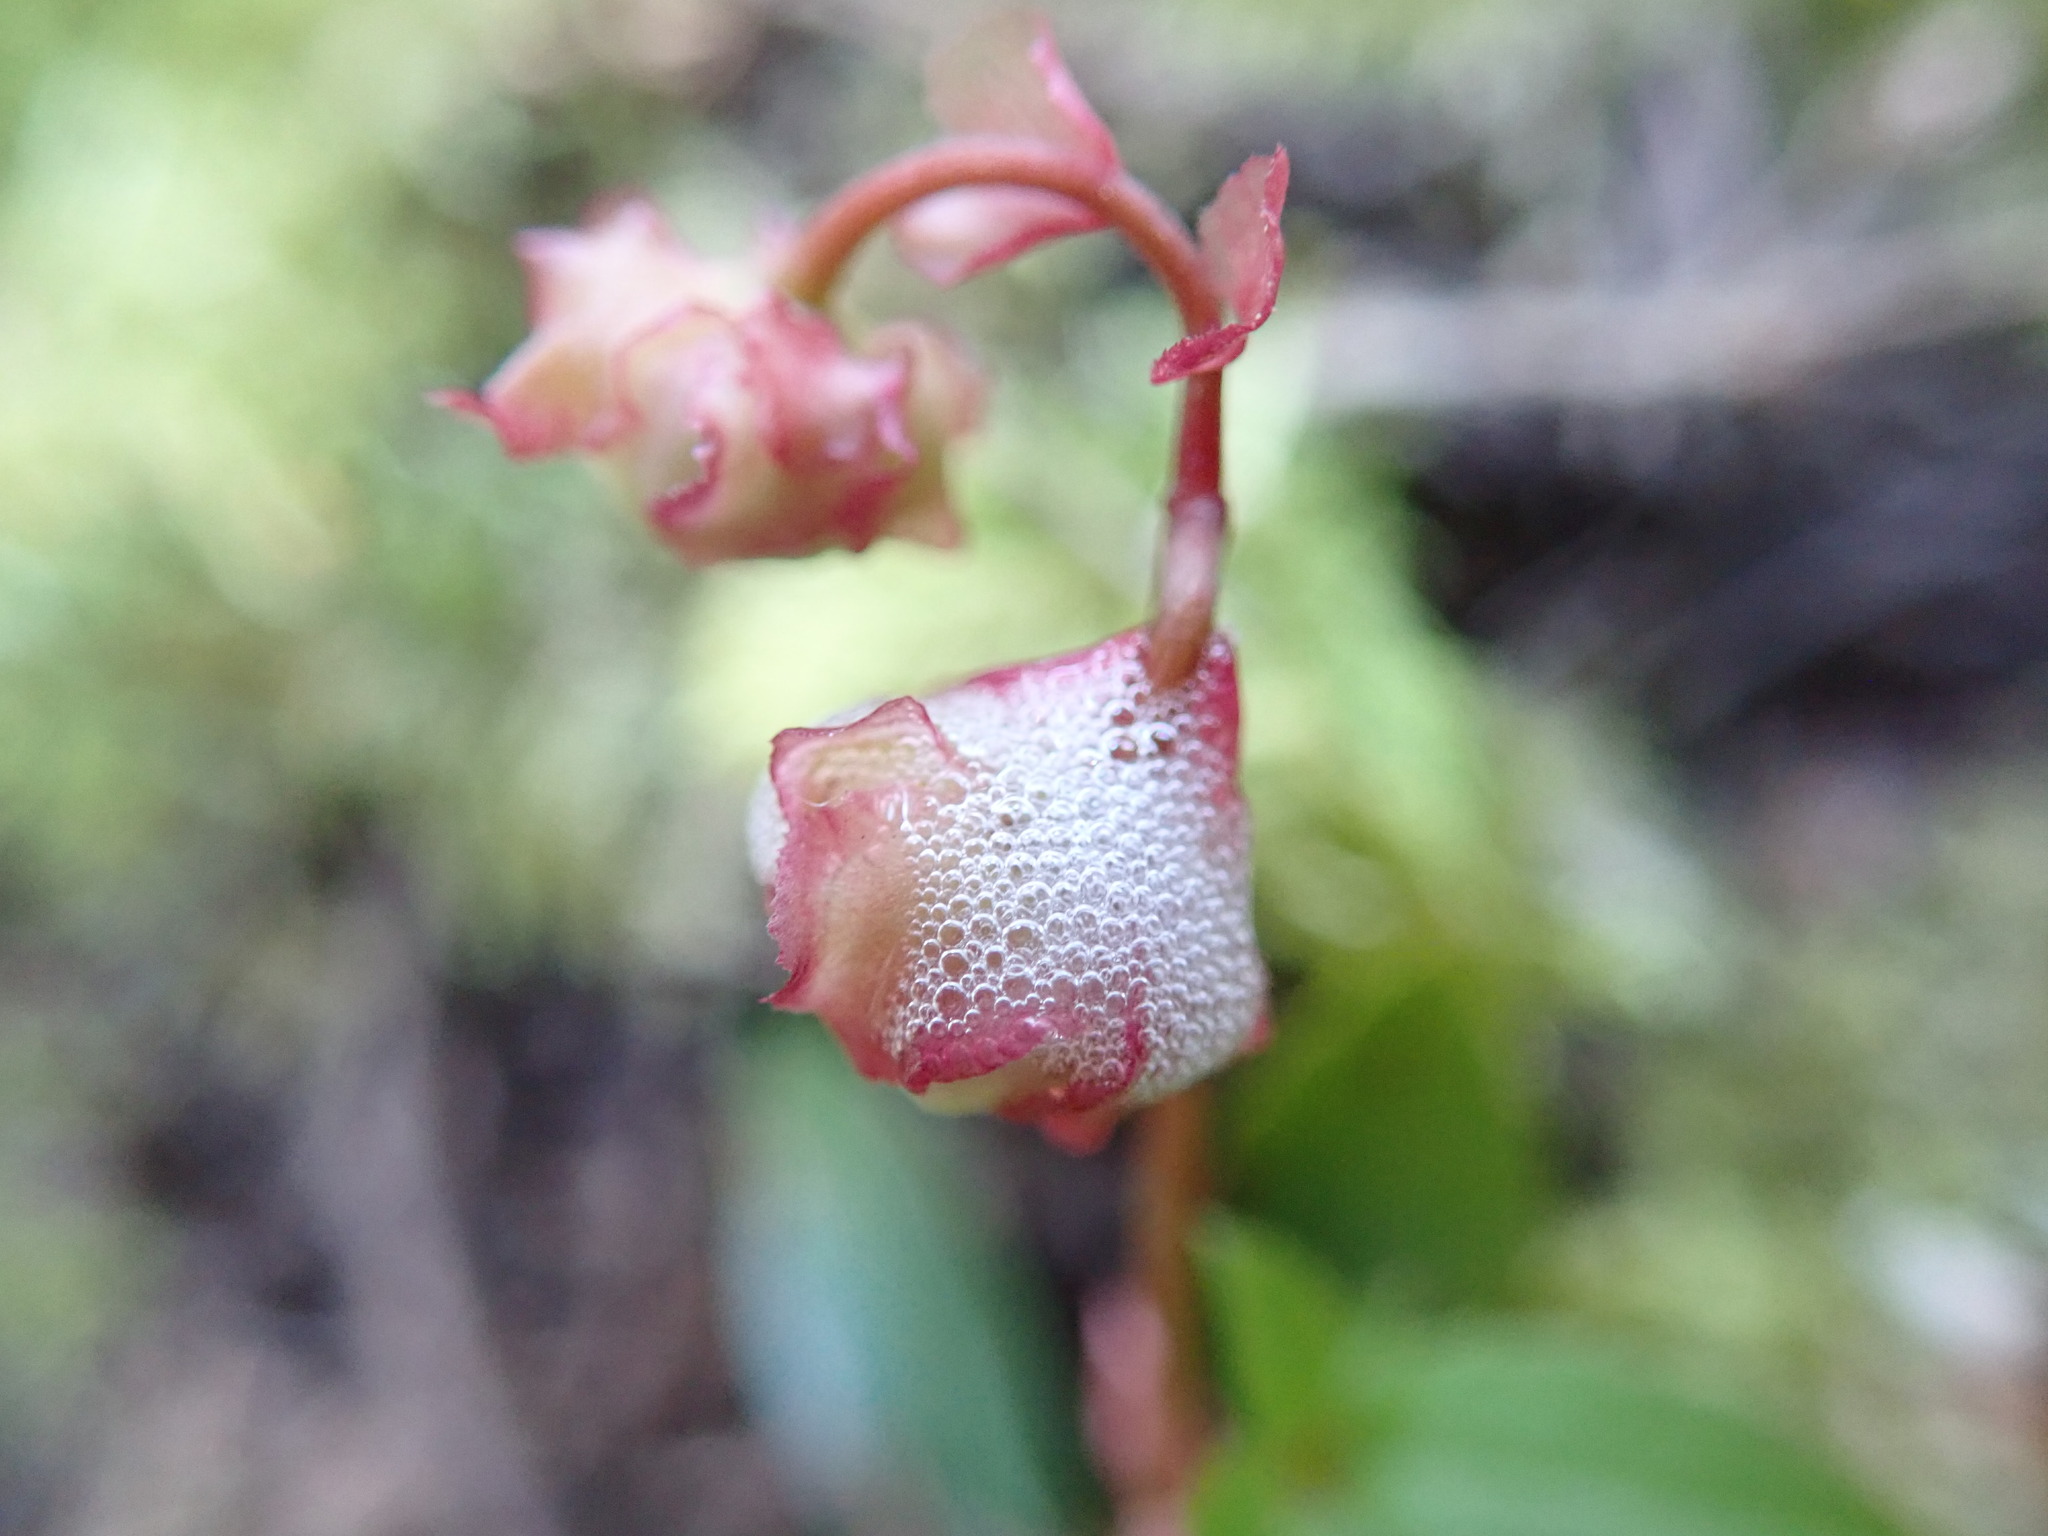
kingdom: Plantae
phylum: Tracheophyta
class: Magnoliopsida
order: Ericales
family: Ericaceae
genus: Chimaphila
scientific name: Chimaphila menziesii
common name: Menzies' pipsissewa
